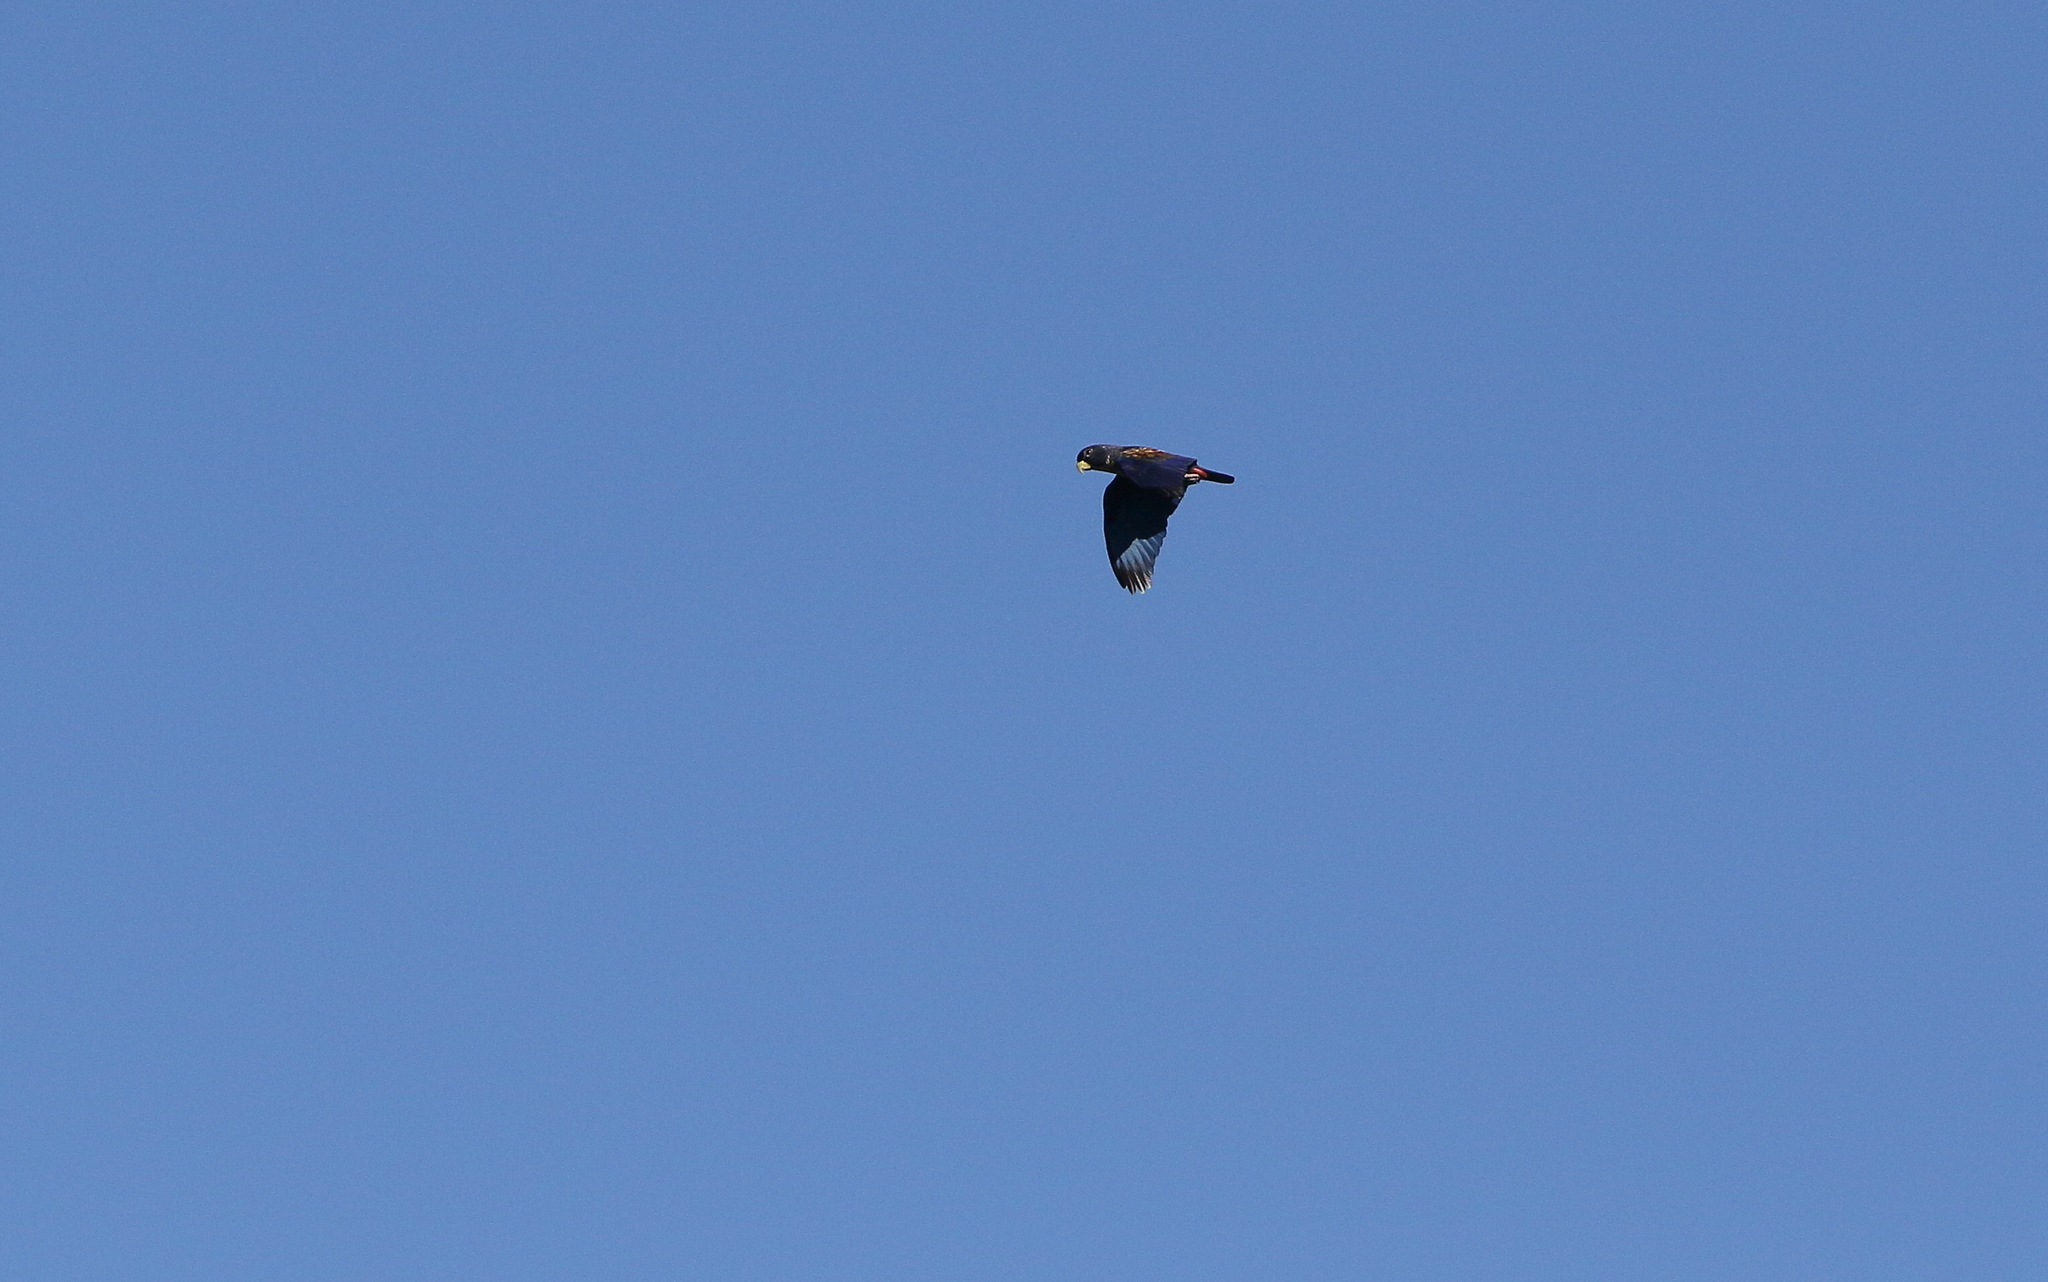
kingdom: Animalia
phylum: Chordata
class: Aves
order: Psittaciformes
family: Psittacidae
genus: Pionus
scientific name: Pionus chalcopterus
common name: Bronze-winged parrot
